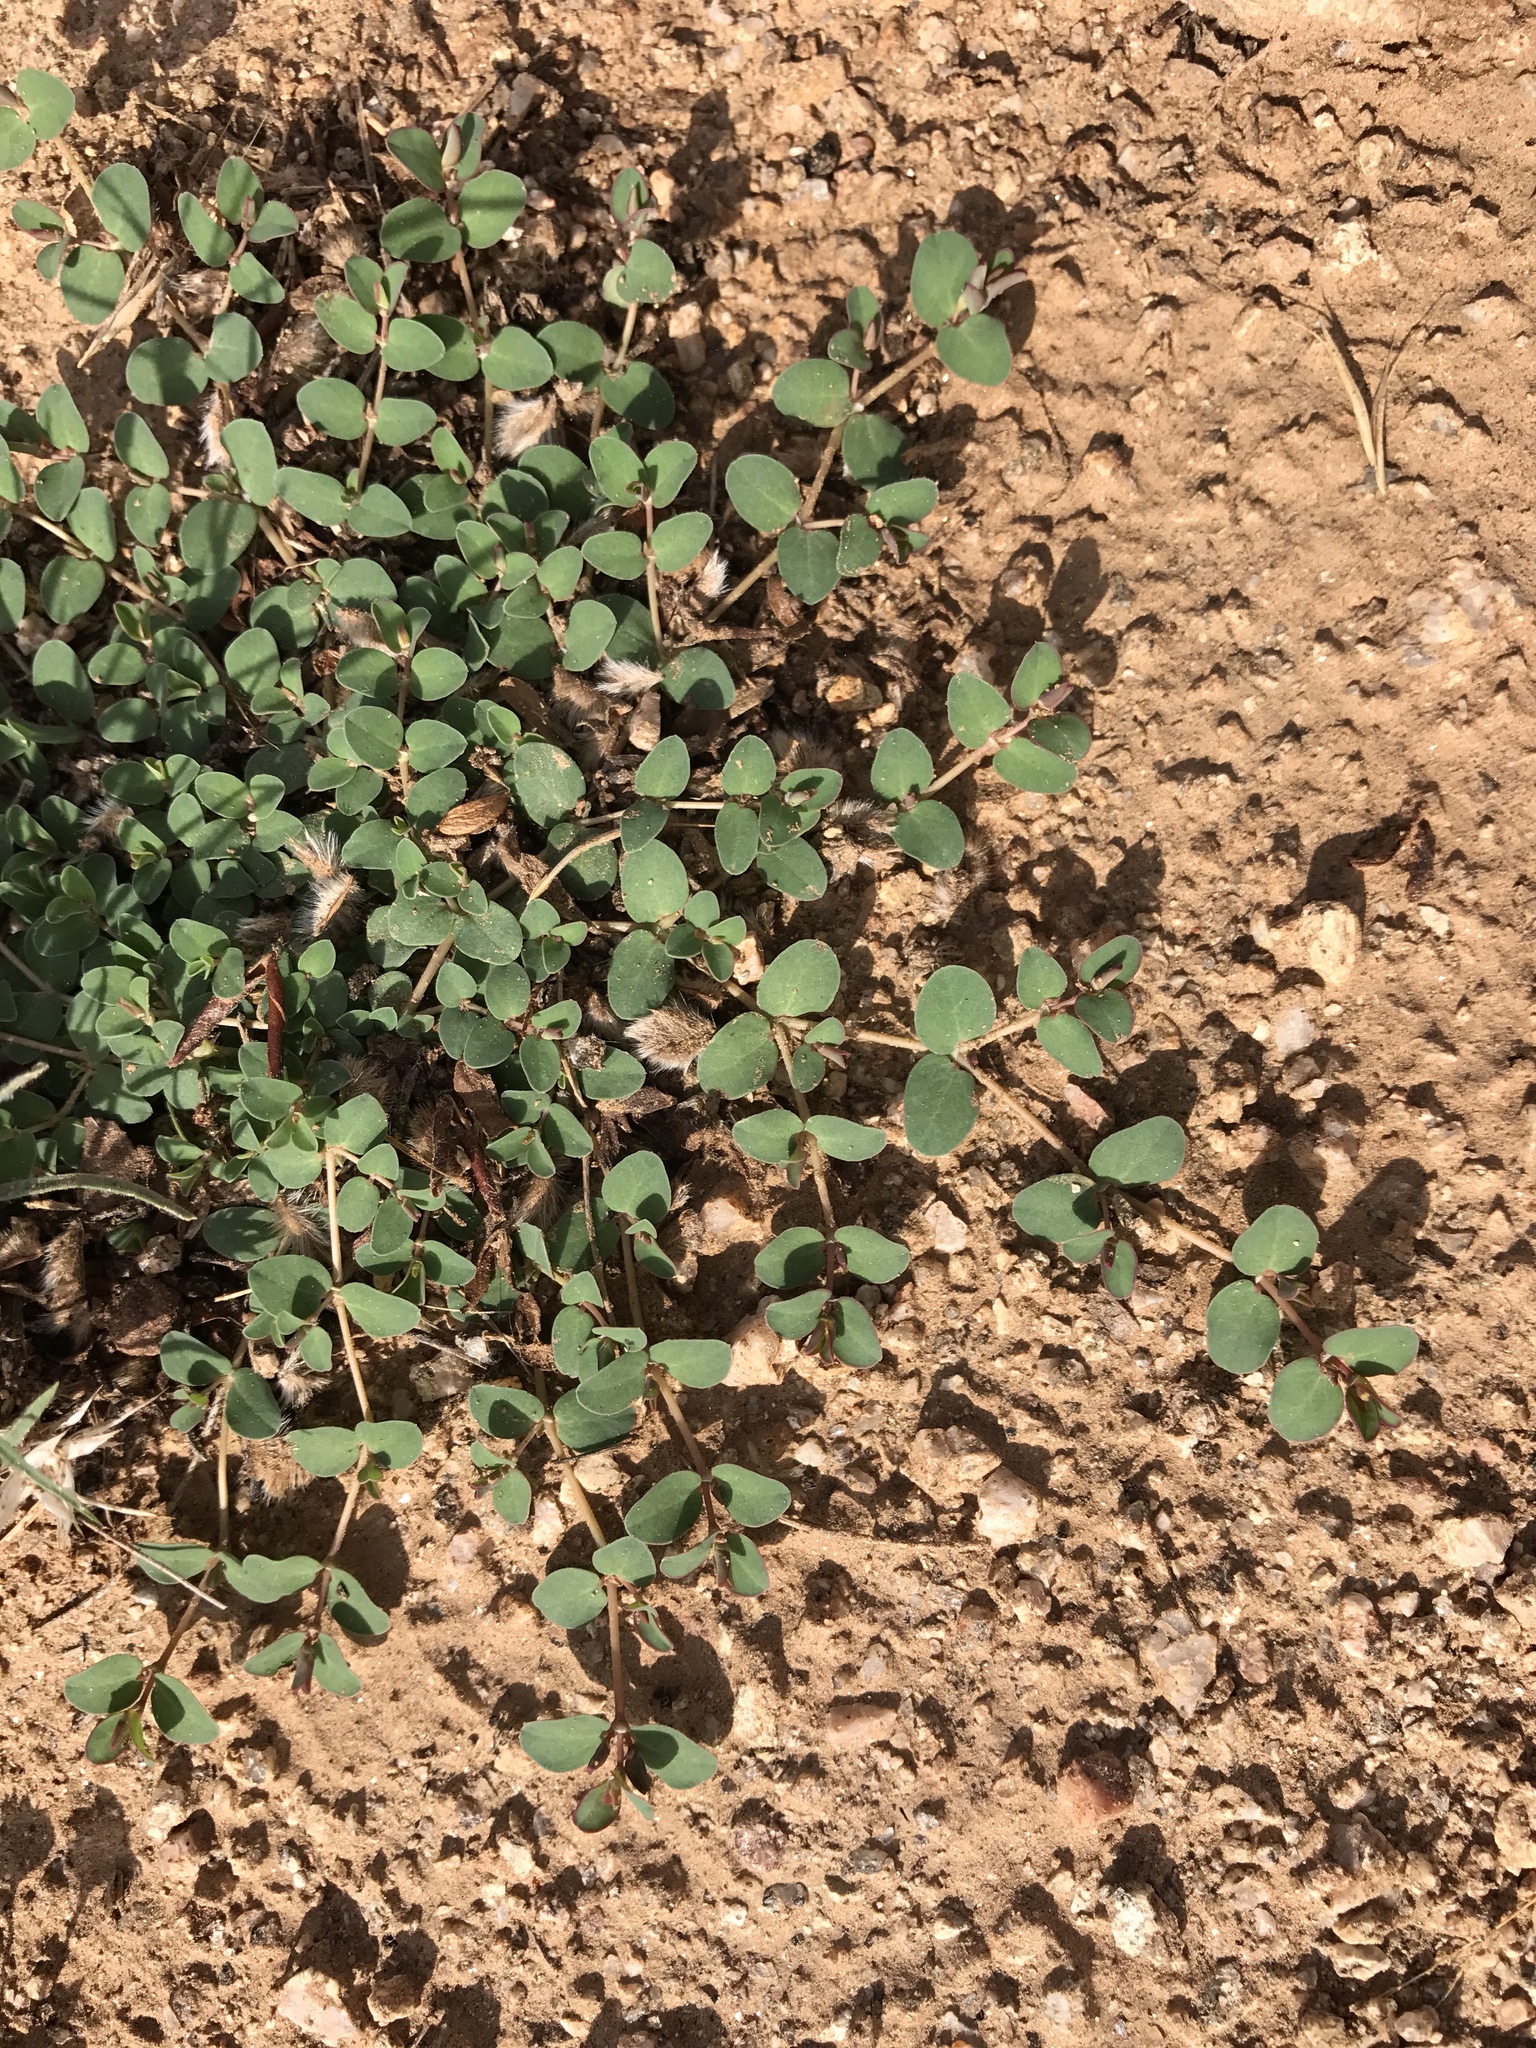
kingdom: Plantae
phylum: Tracheophyta
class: Magnoliopsida
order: Malpighiales
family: Euphorbiaceae
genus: Euphorbia
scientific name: Euphorbia albomarginata
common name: Whitemargin sandmat
